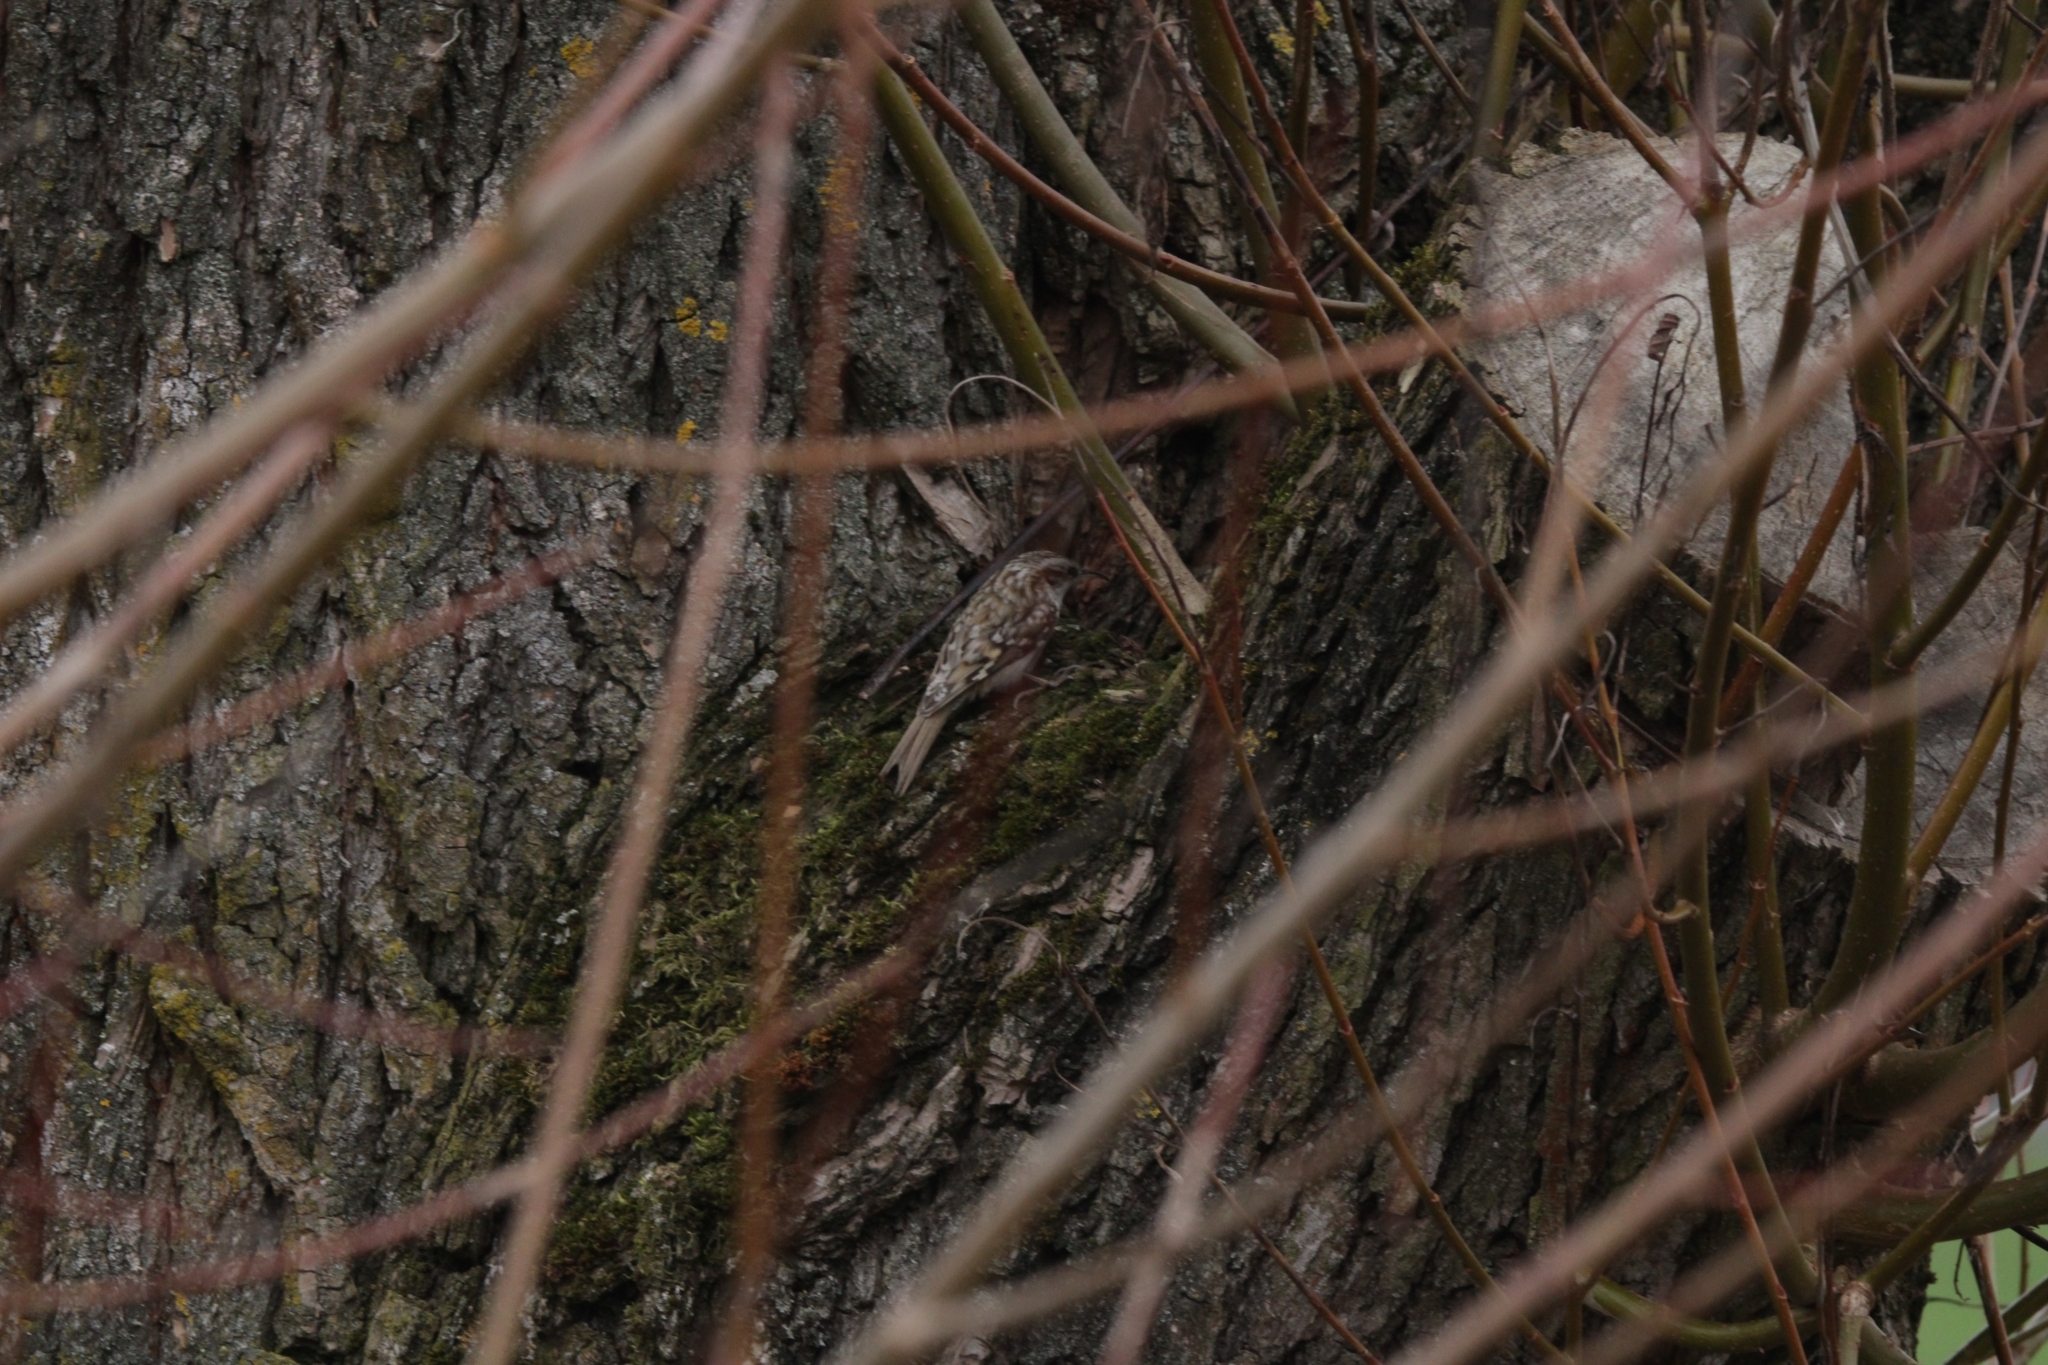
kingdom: Animalia
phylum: Chordata
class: Aves
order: Passeriformes
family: Certhiidae
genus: Certhia
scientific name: Certhia familiaris
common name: Eurasian treecreeper
